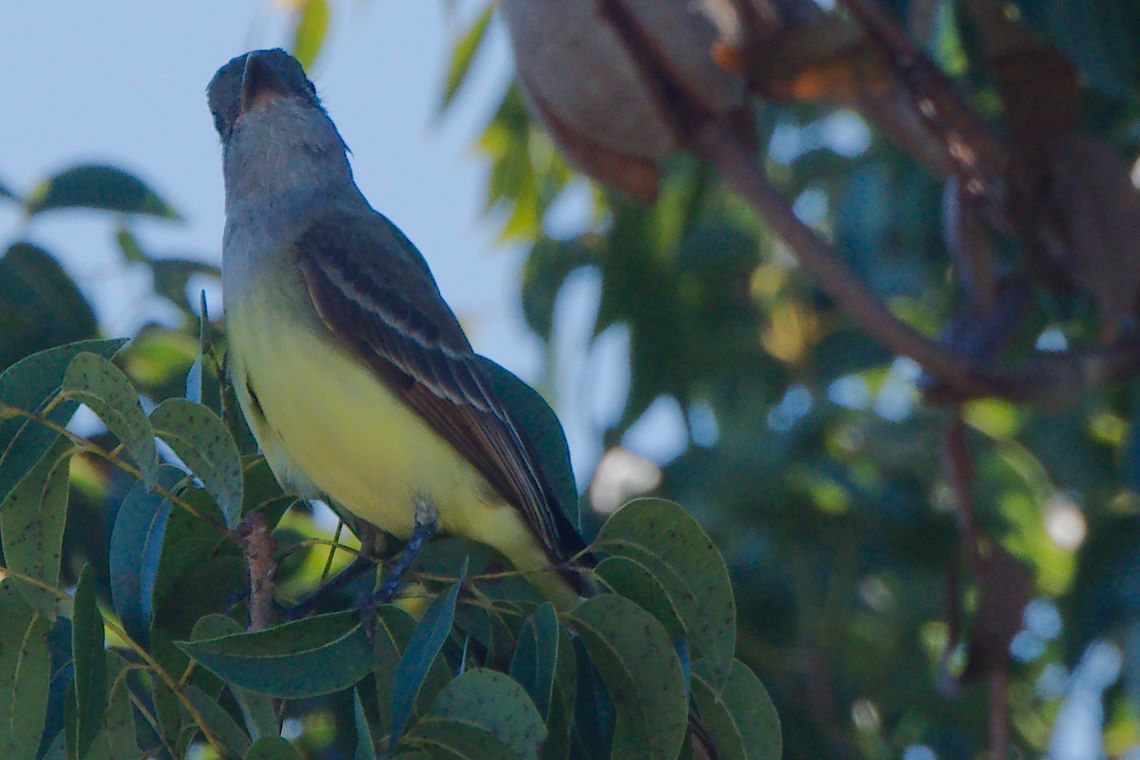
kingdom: Animalia
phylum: Chordata
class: Aves
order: Passeriformes
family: Tyrannidae
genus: Myiarchus
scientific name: Myiarchus crinitus
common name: Great crested flycatcher
